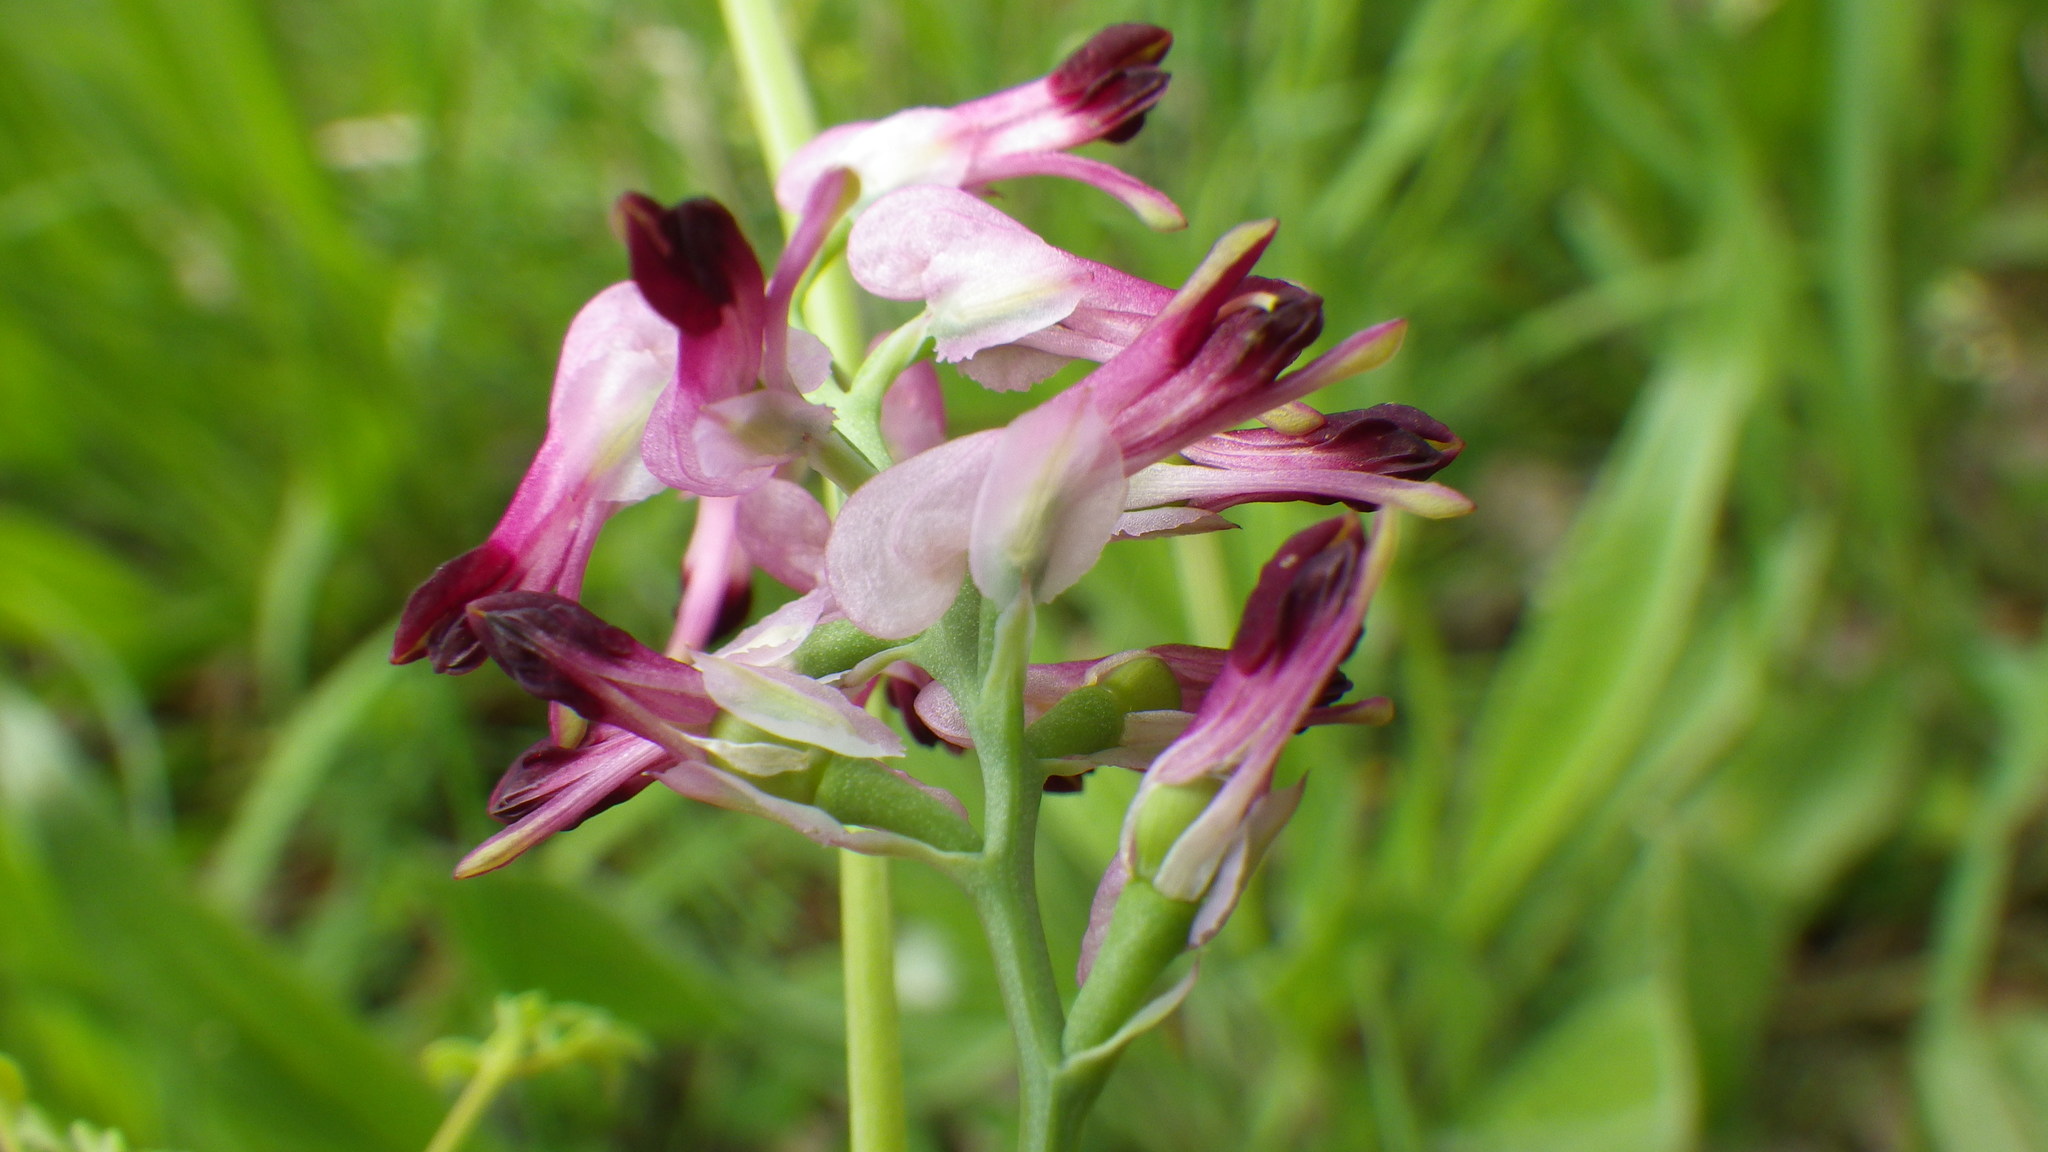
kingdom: Plantae
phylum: Tracheophyta
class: Magnoliopsida
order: Ranunculales
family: Papaveraceae
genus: Fumaria
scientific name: Fumaria purpurea
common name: Purple ramping-fumitory
